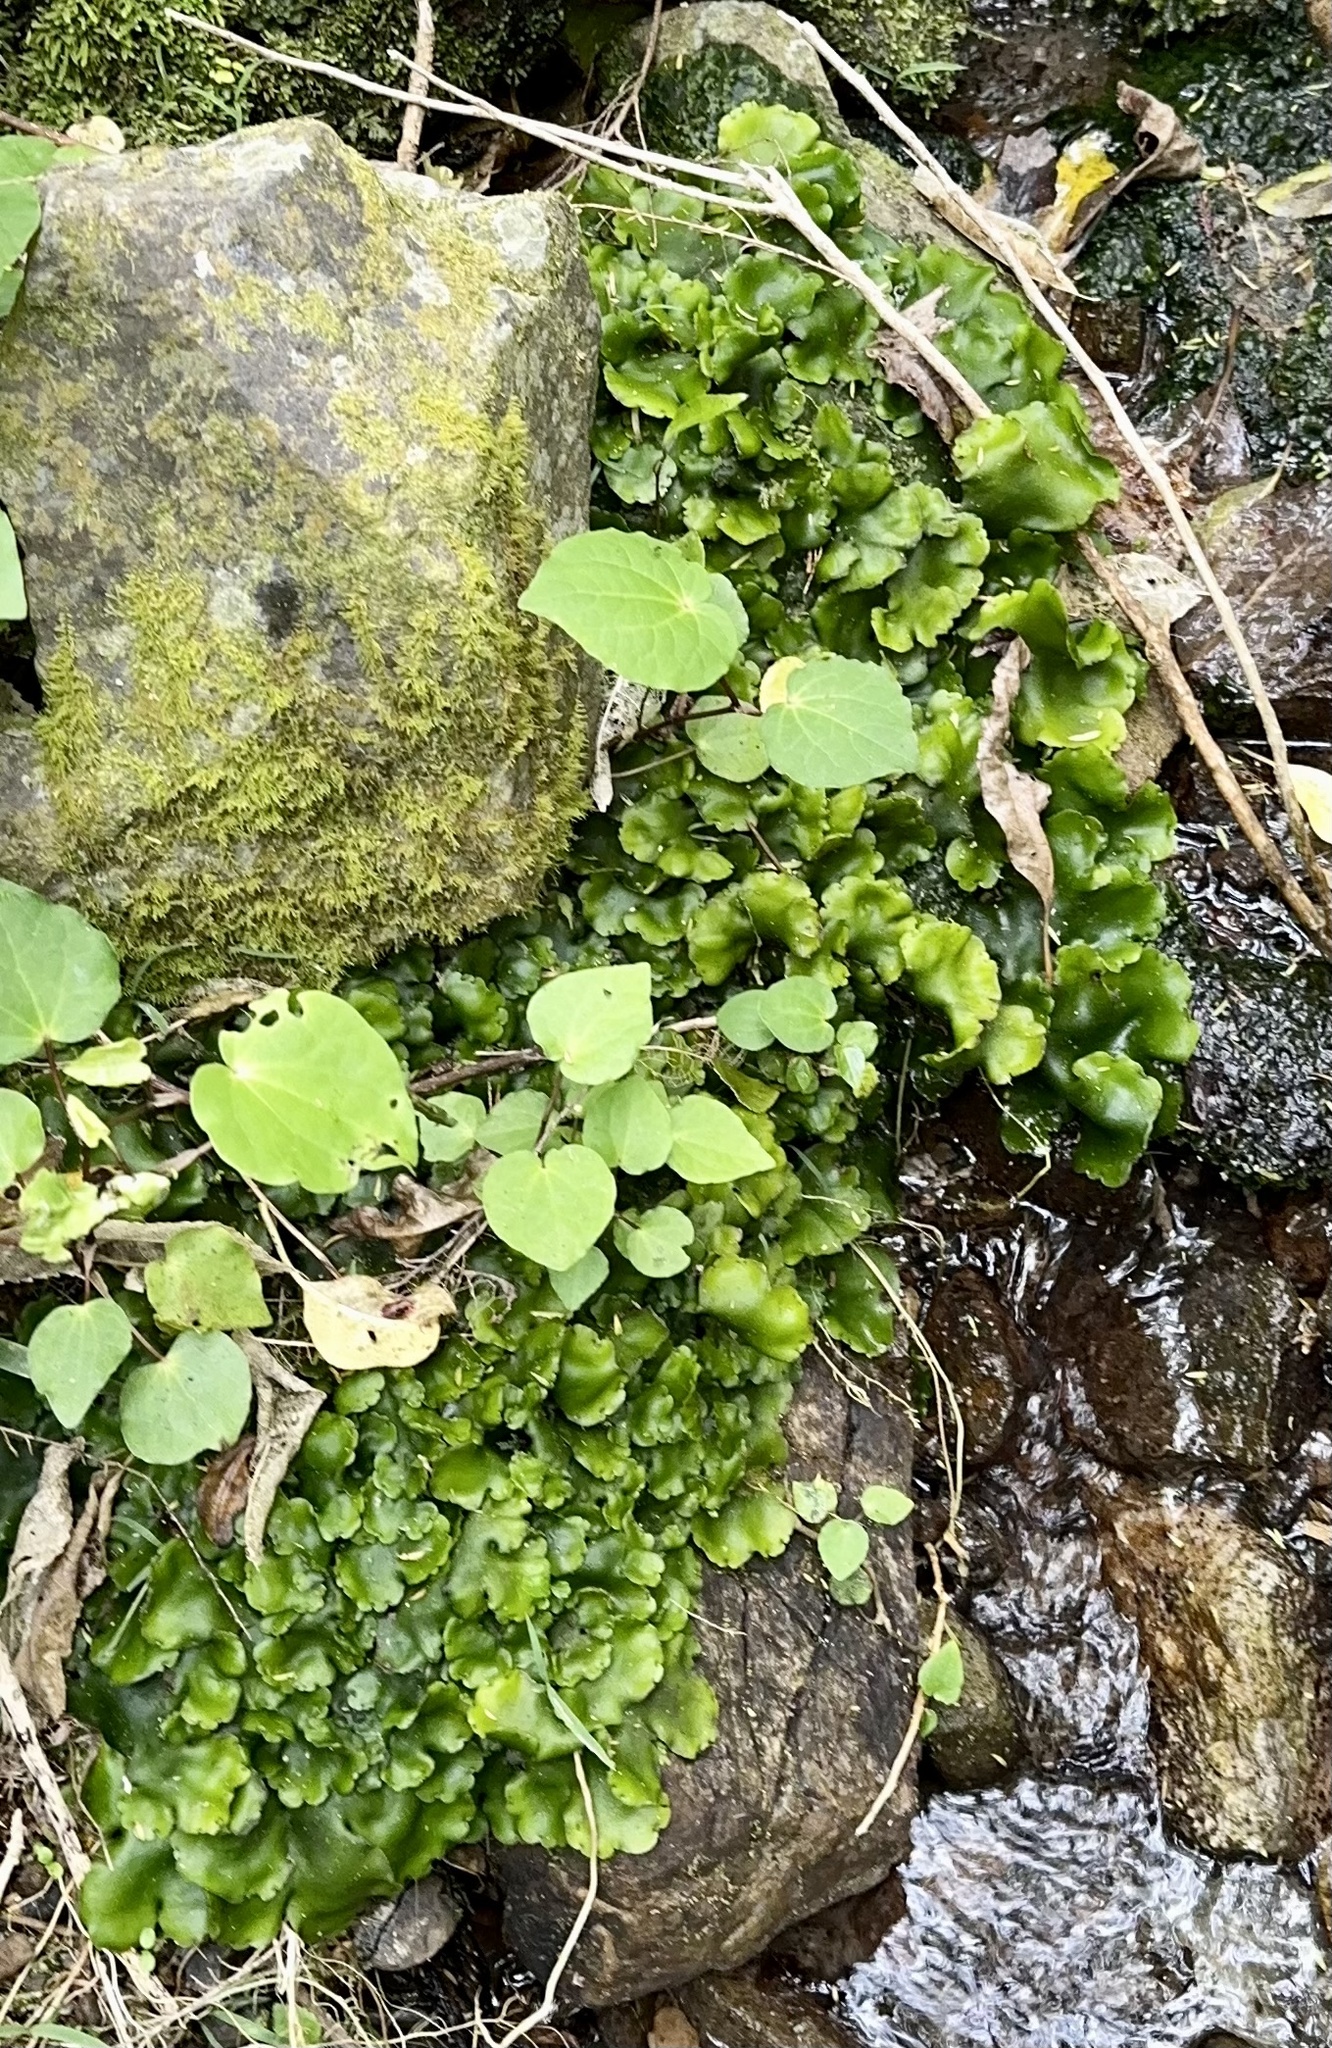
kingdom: Plantae
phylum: Marchantiophyta
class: Marchantiopsida
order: Marchantiales
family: Monocleaceae
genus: Monoclea
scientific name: Monoclea forsteri
